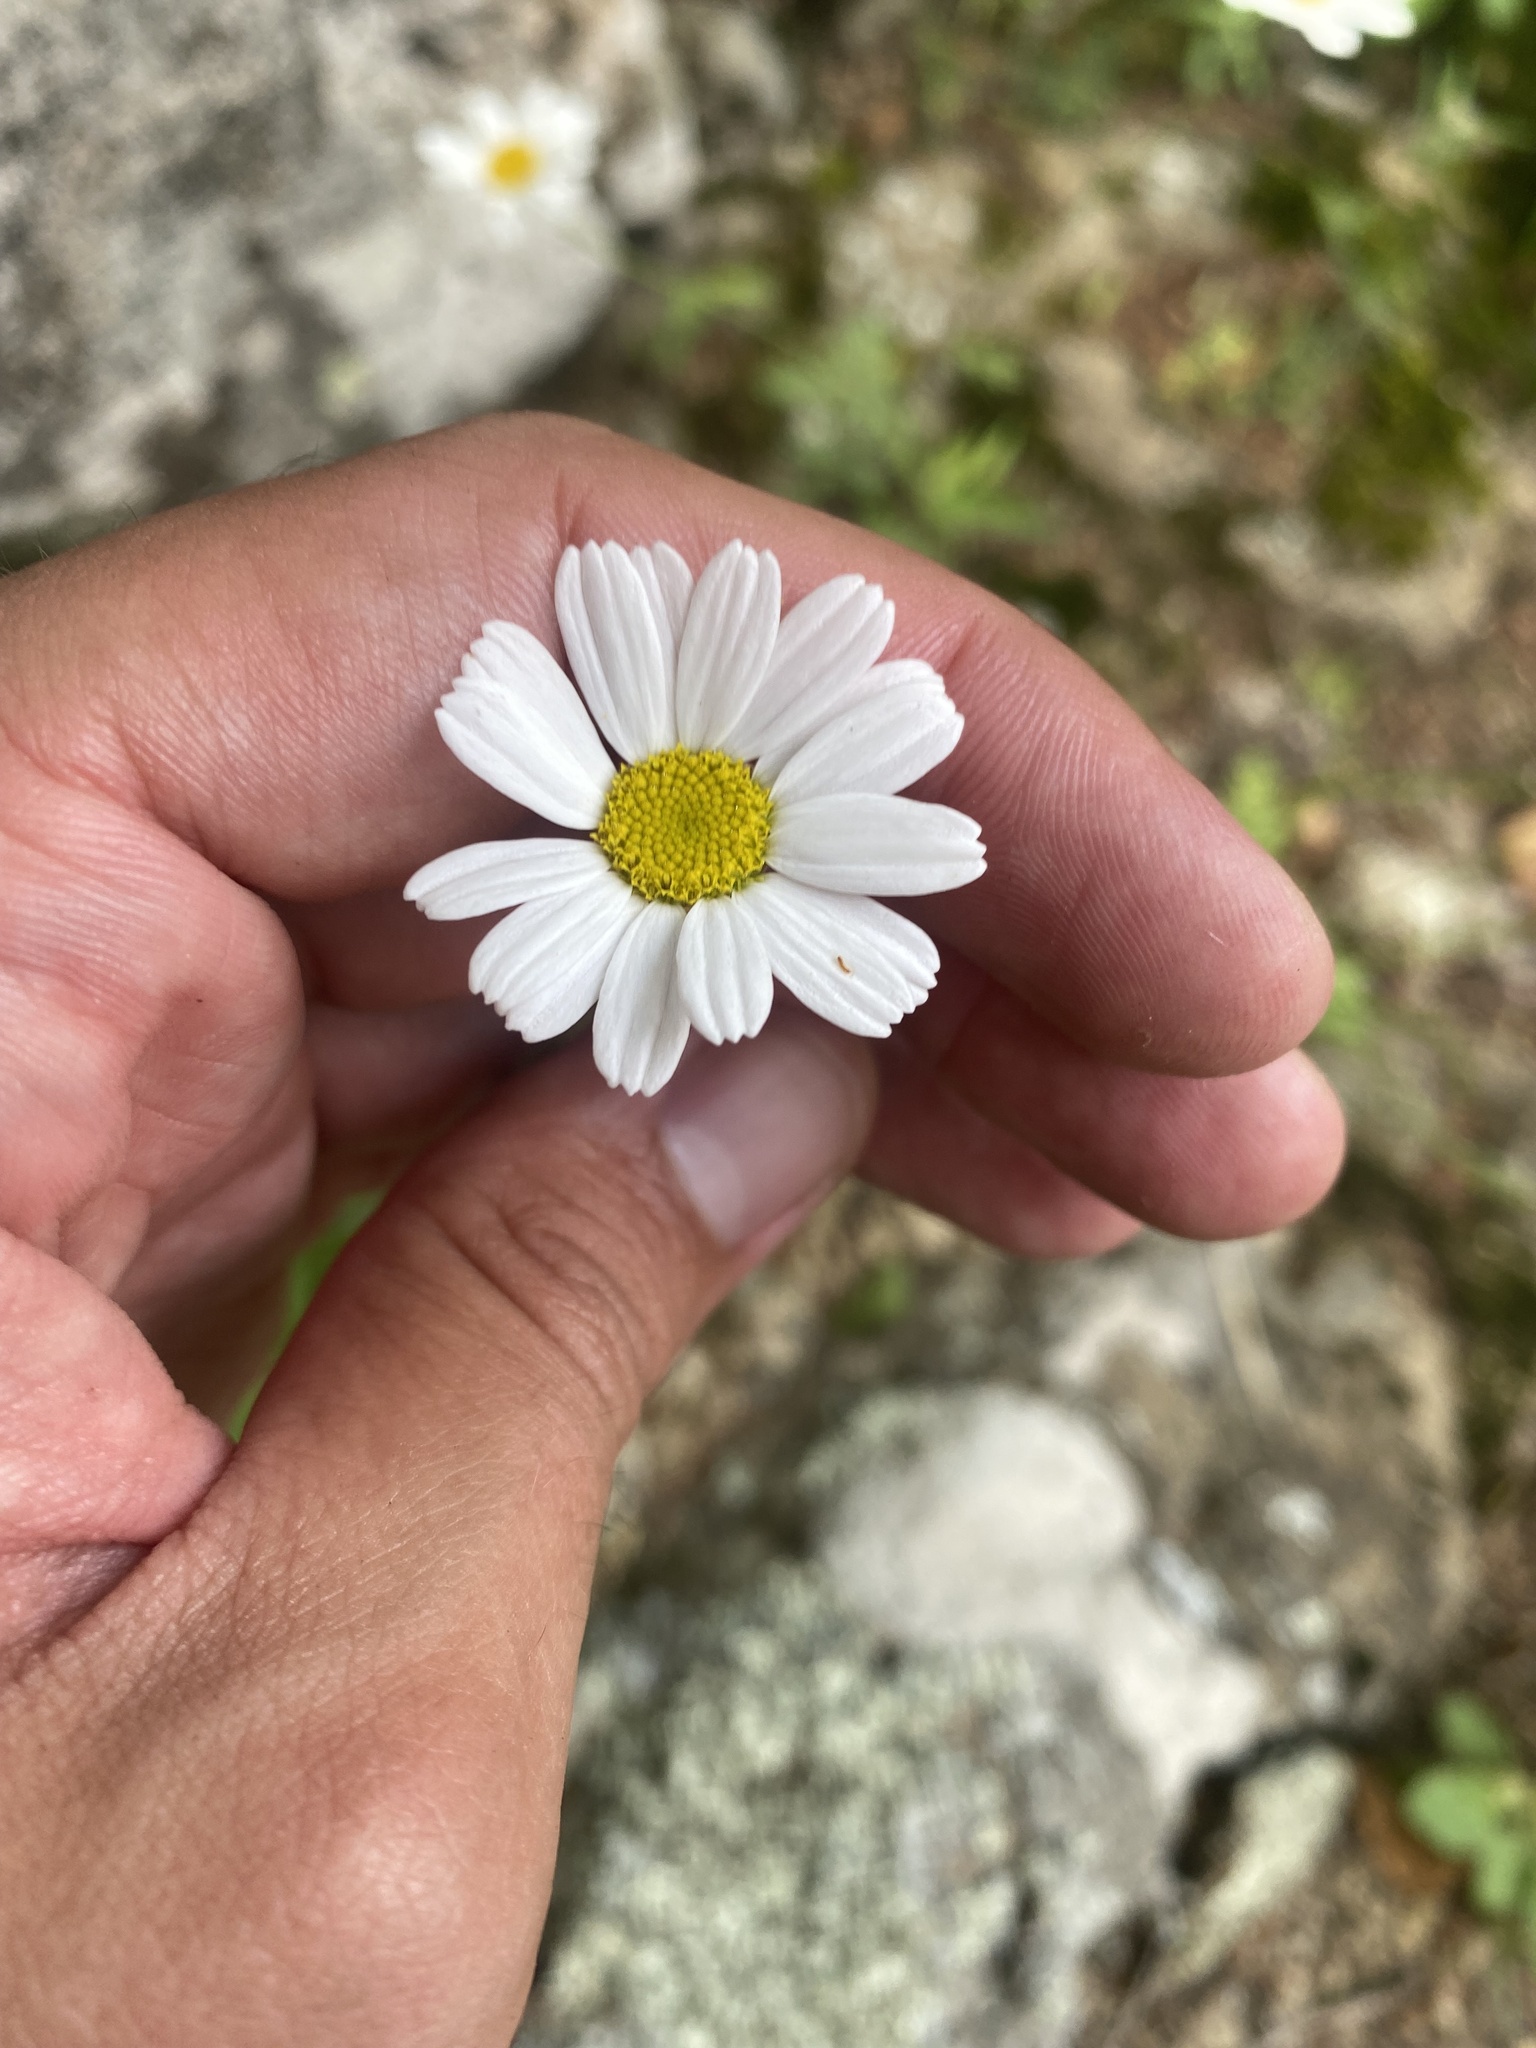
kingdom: Plantae
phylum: Tracheophyta
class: Magnoliopsida
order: Asterales
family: Asteraceae
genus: Tanacetum
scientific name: Tanacetum poteriifolium
